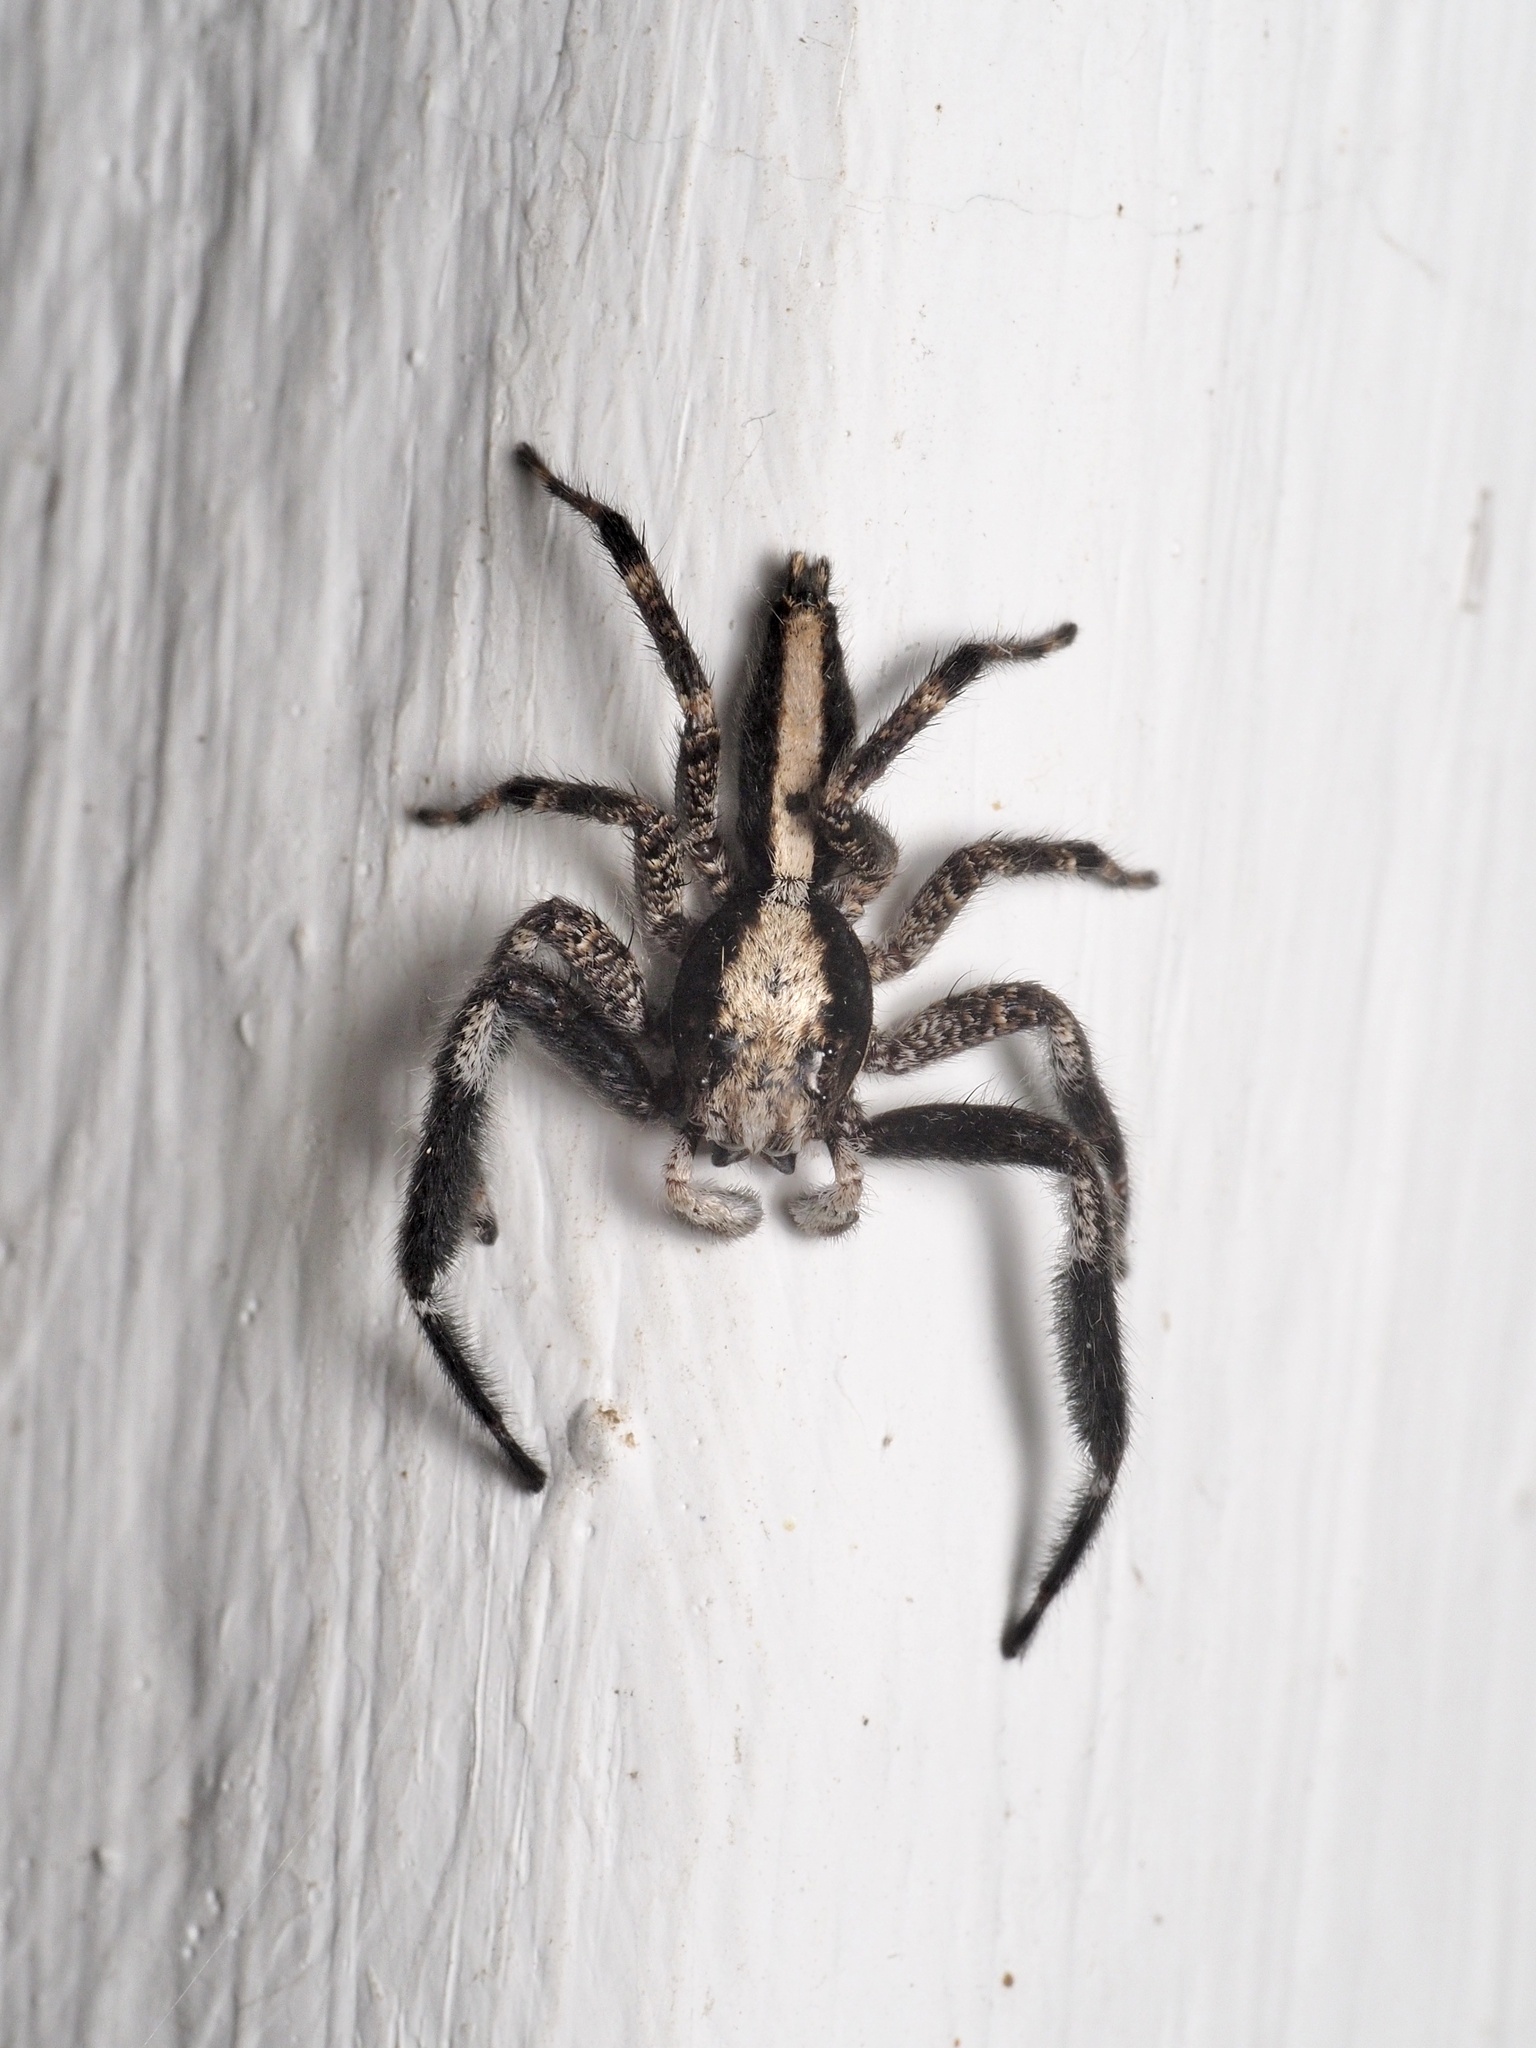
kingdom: Animalia
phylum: Arthropoda
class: Arachnida
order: Araneae
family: Salticidae
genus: Holcolaetis
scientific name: Holcolaetis zuluensis
